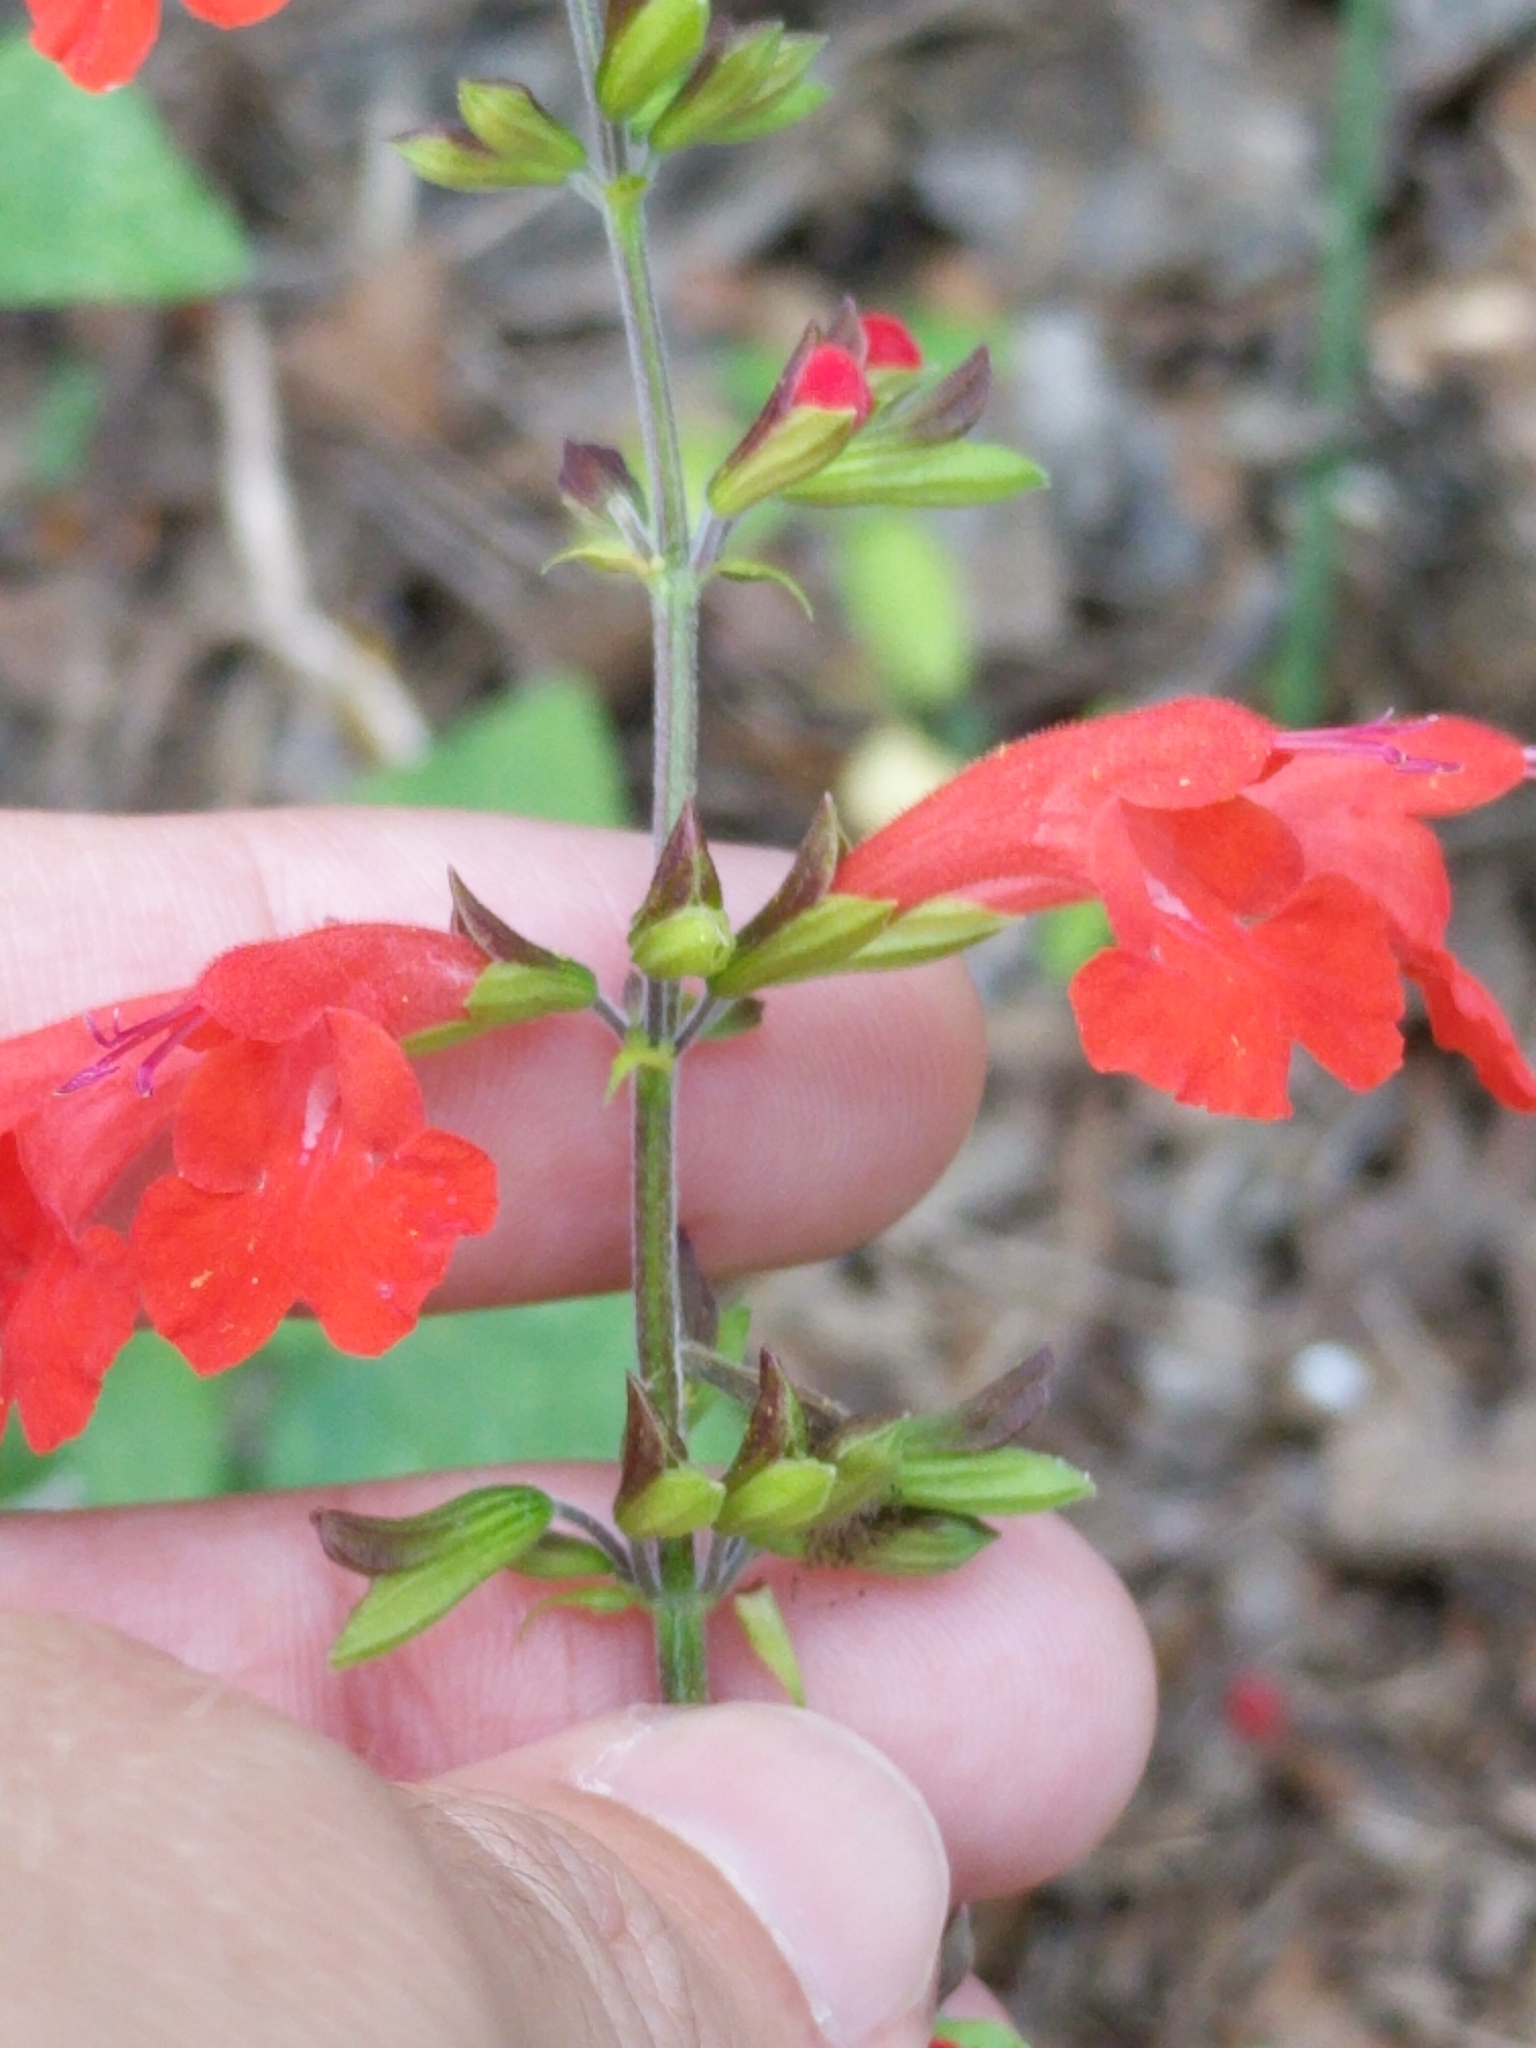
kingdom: Plantae
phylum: Tracheophyta
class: Magnoliopsida
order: Lamiales
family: Lamiaceae
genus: Salvia
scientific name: Salvia coccinea
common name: Blood sage
